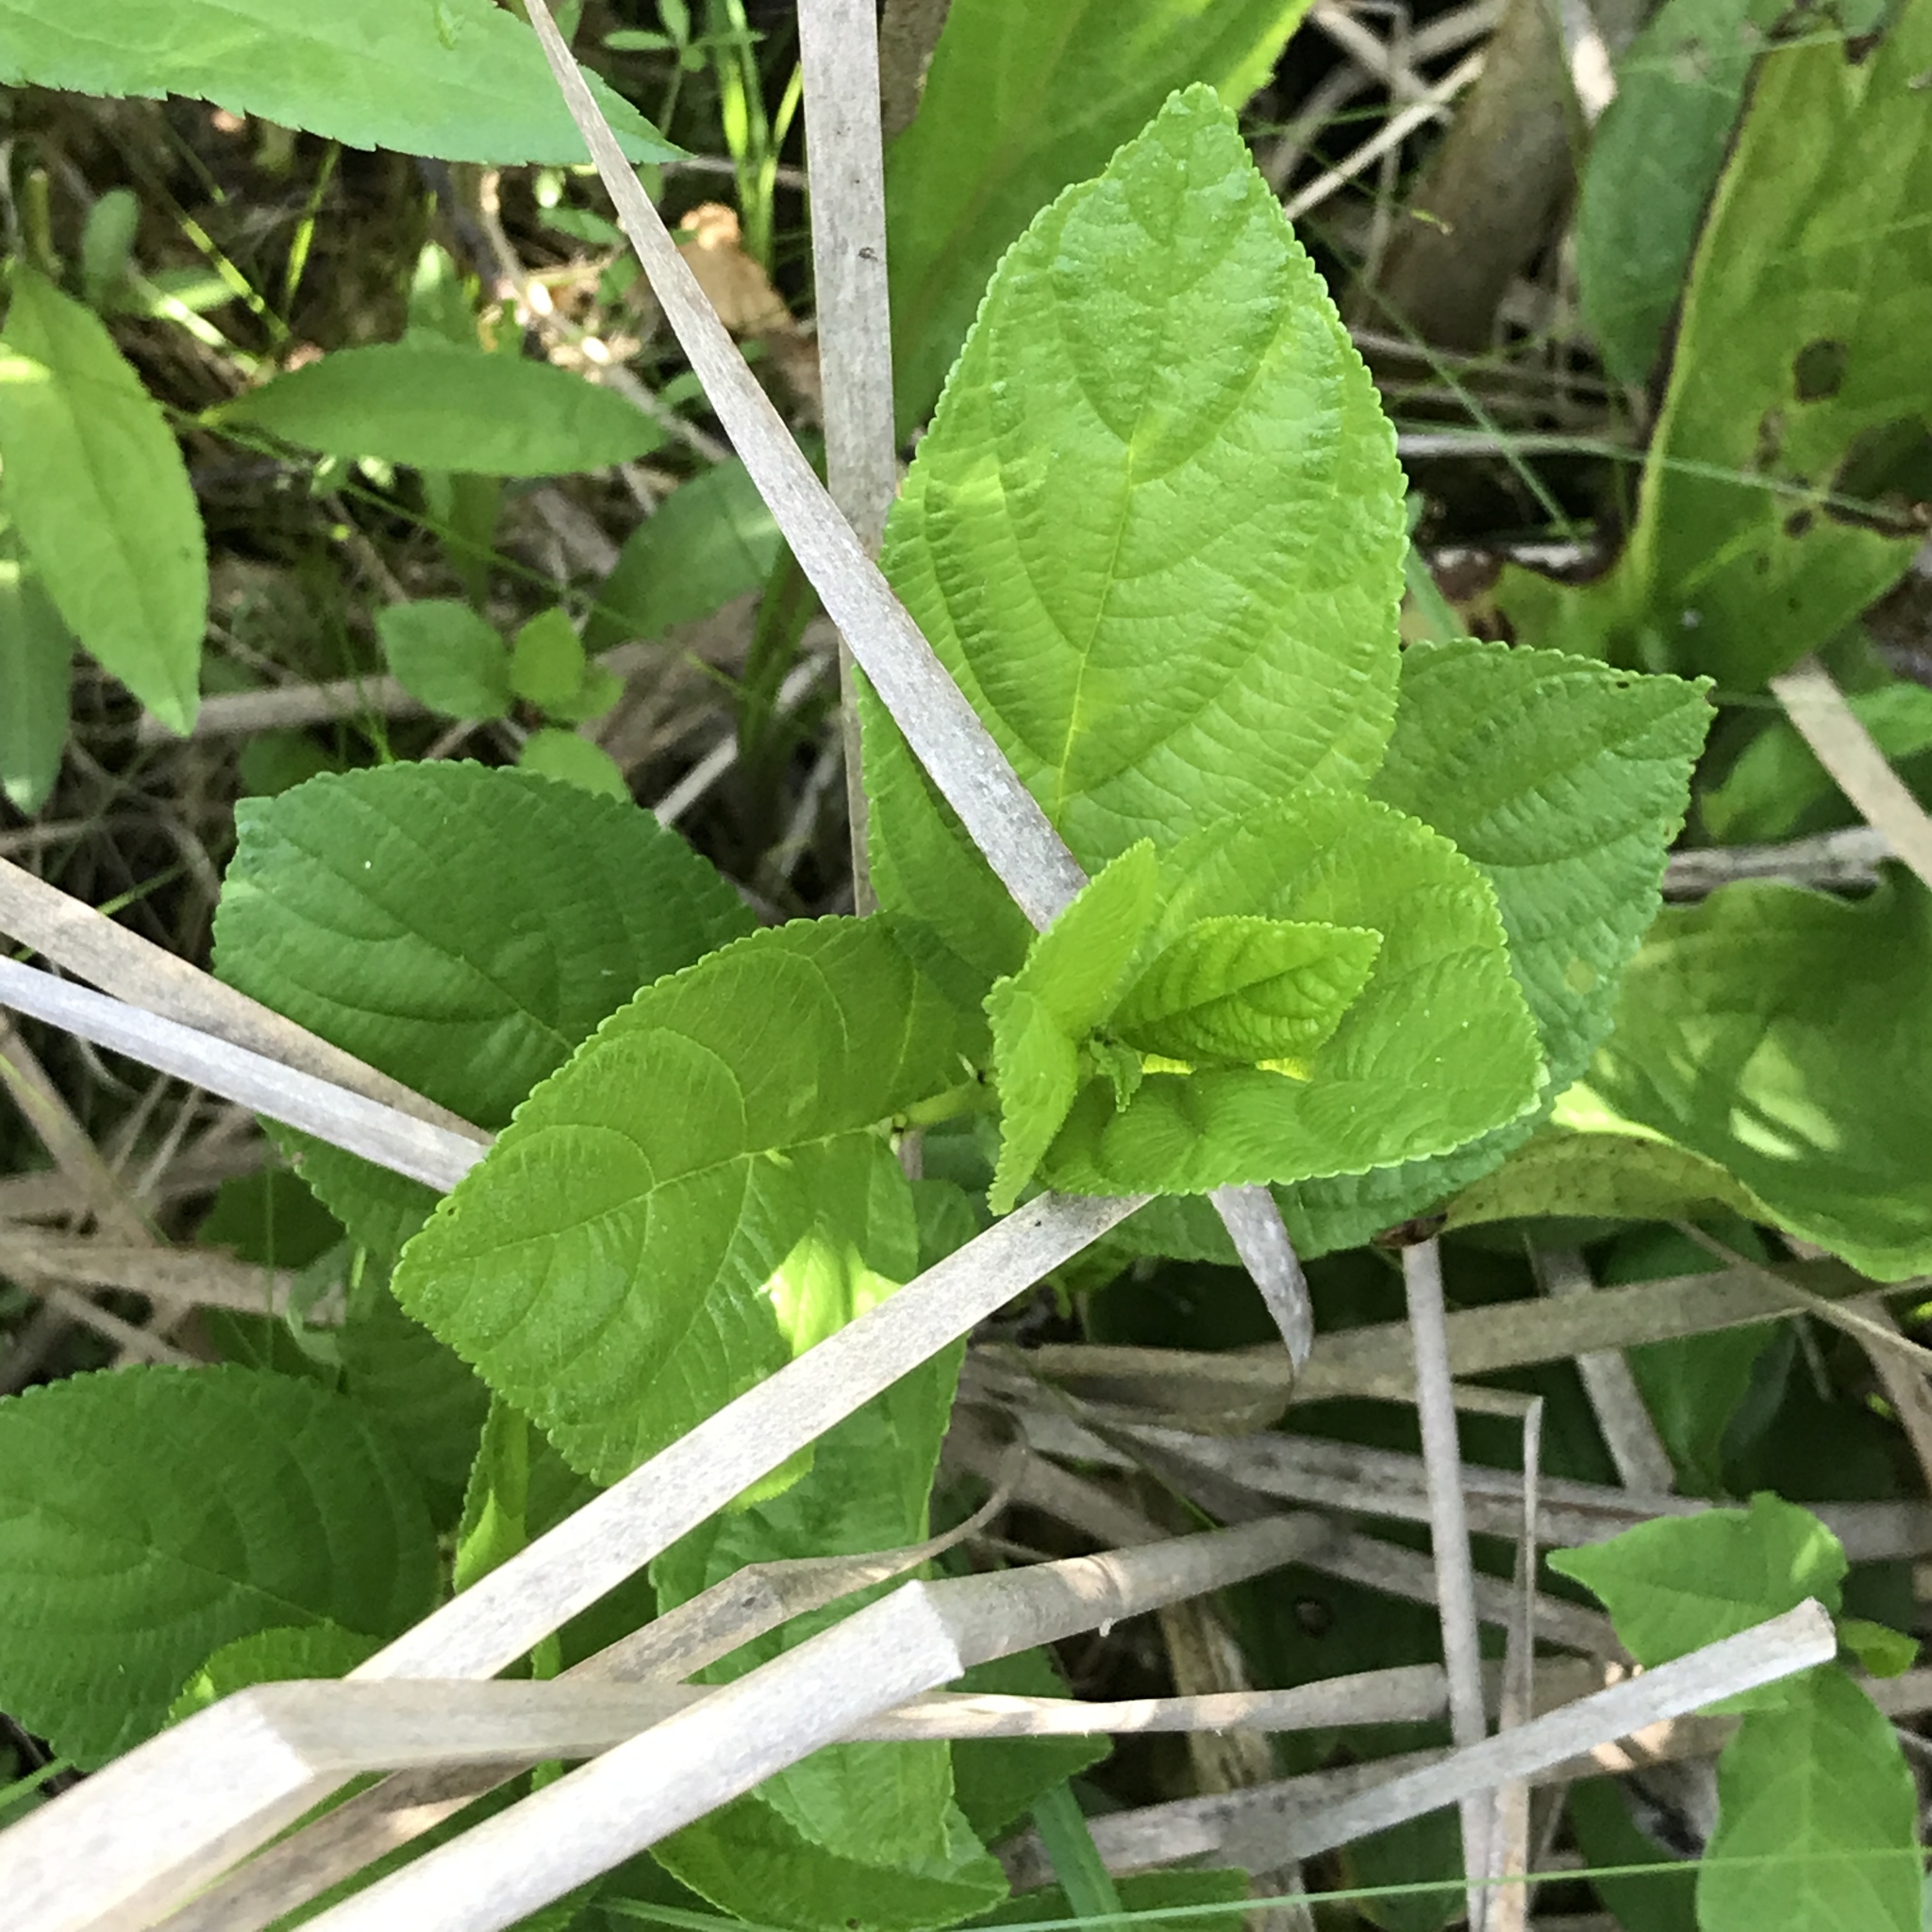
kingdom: Plantae
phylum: Tracheophyta
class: Magnoliopsida
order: Rosales
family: Rhamnaceae
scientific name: Rhamnaceae
